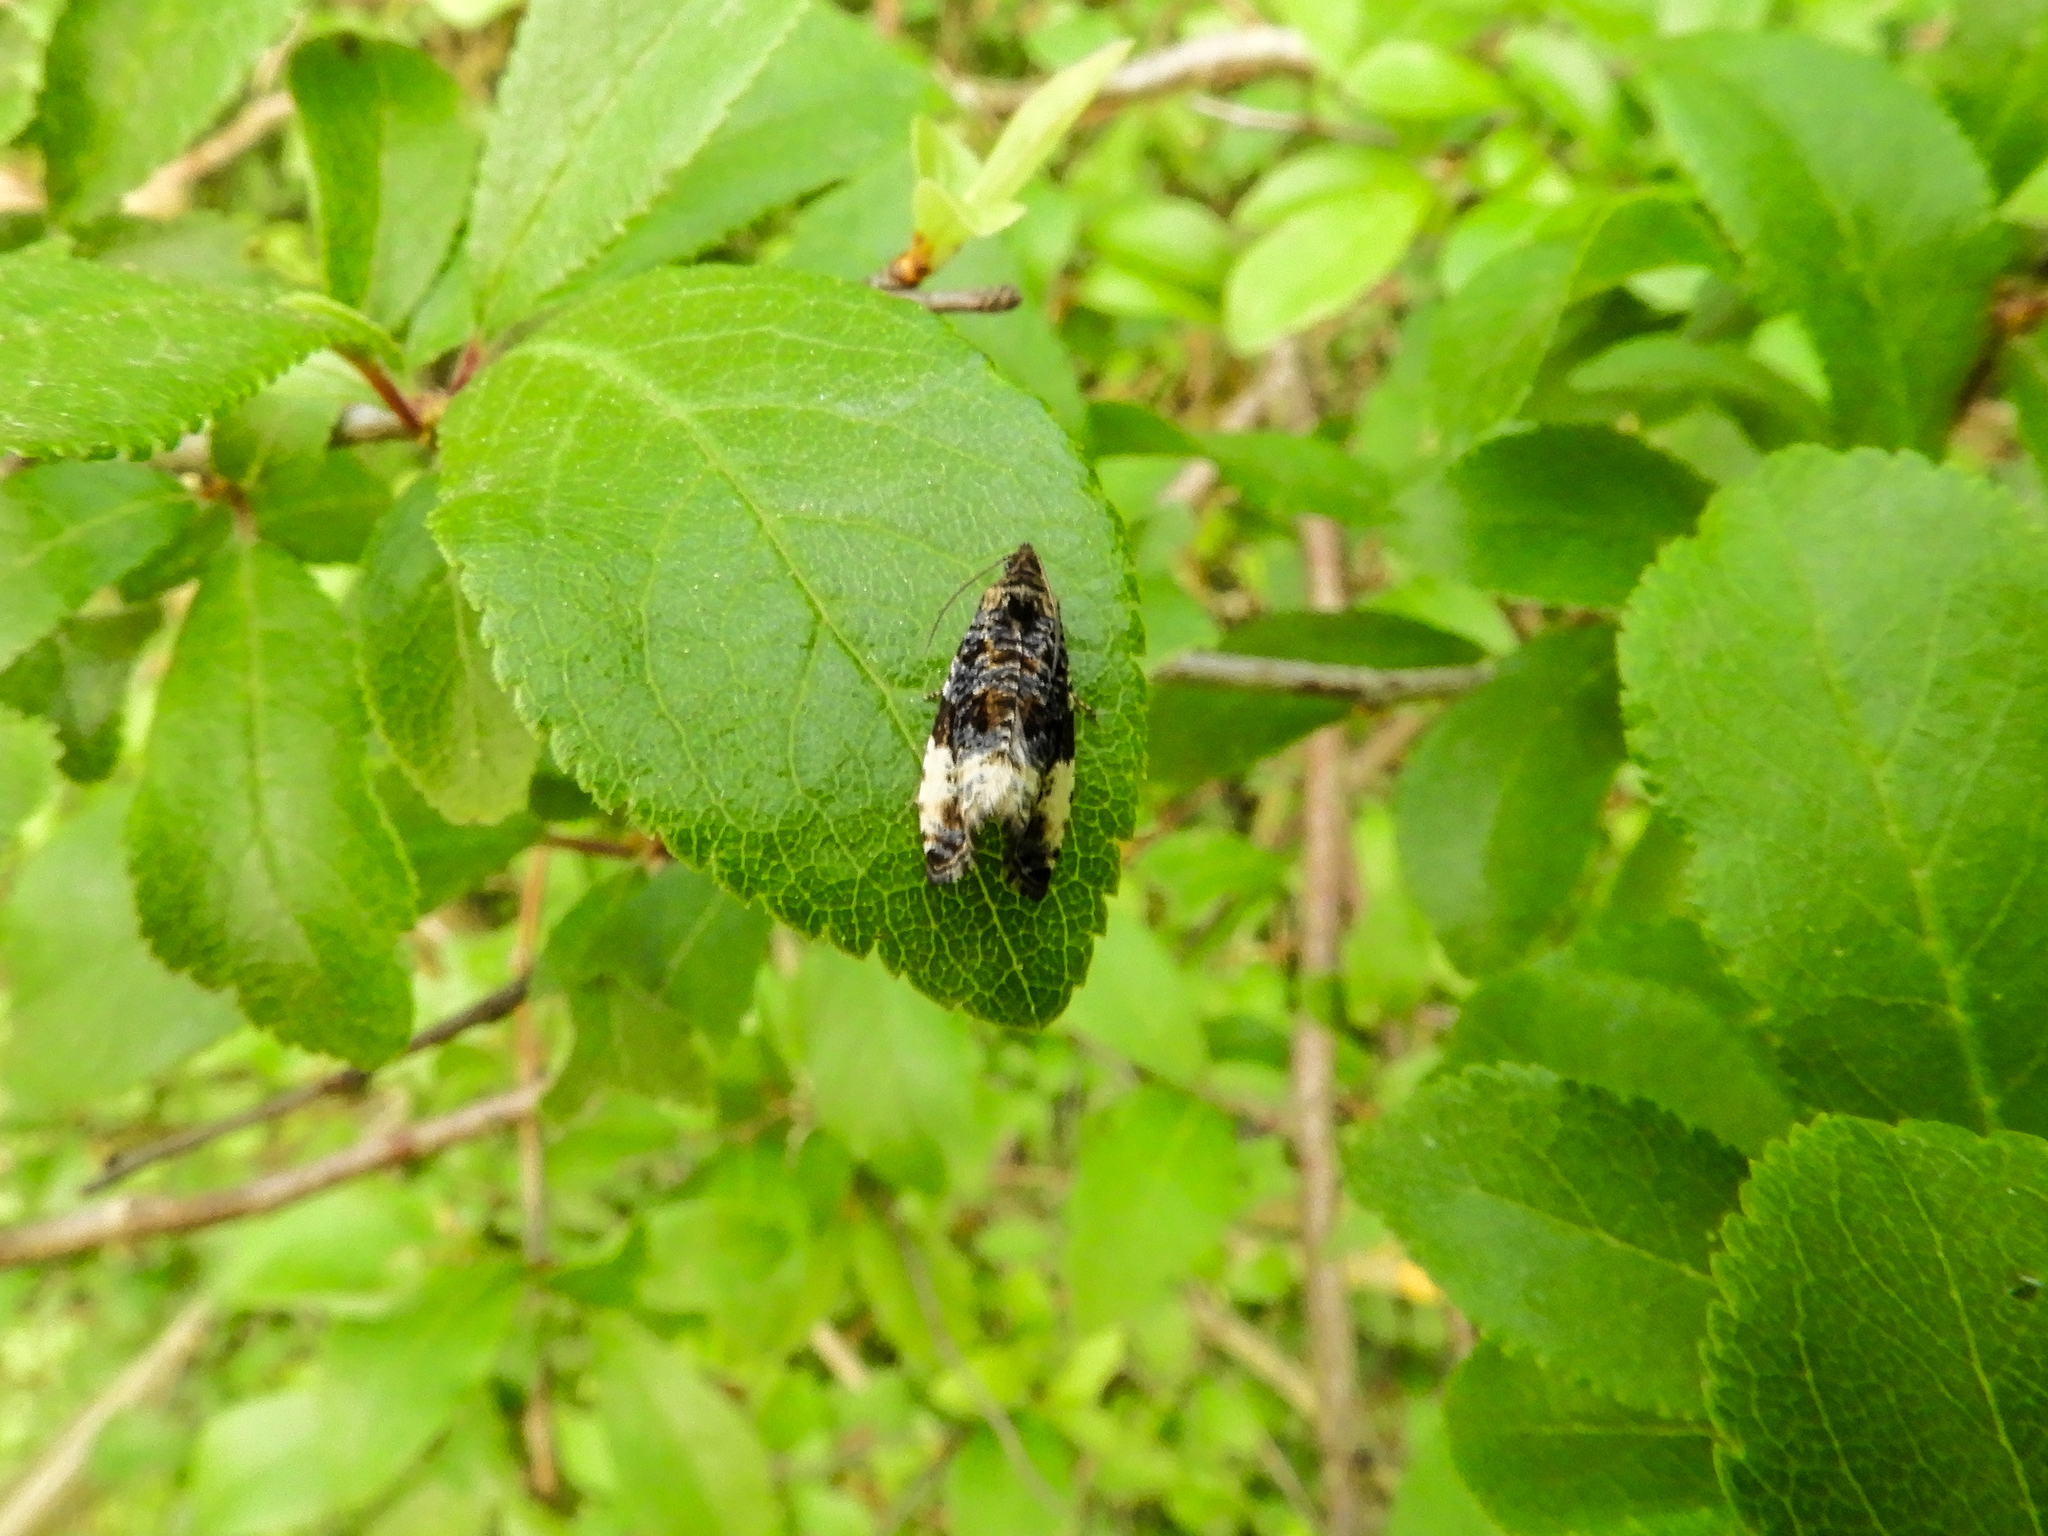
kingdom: Animalia
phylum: Arthropoda
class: Insecta
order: Lepidoptera
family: Tortricidae
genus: Hedya
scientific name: Hedya pruniana
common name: Plum tortrix
